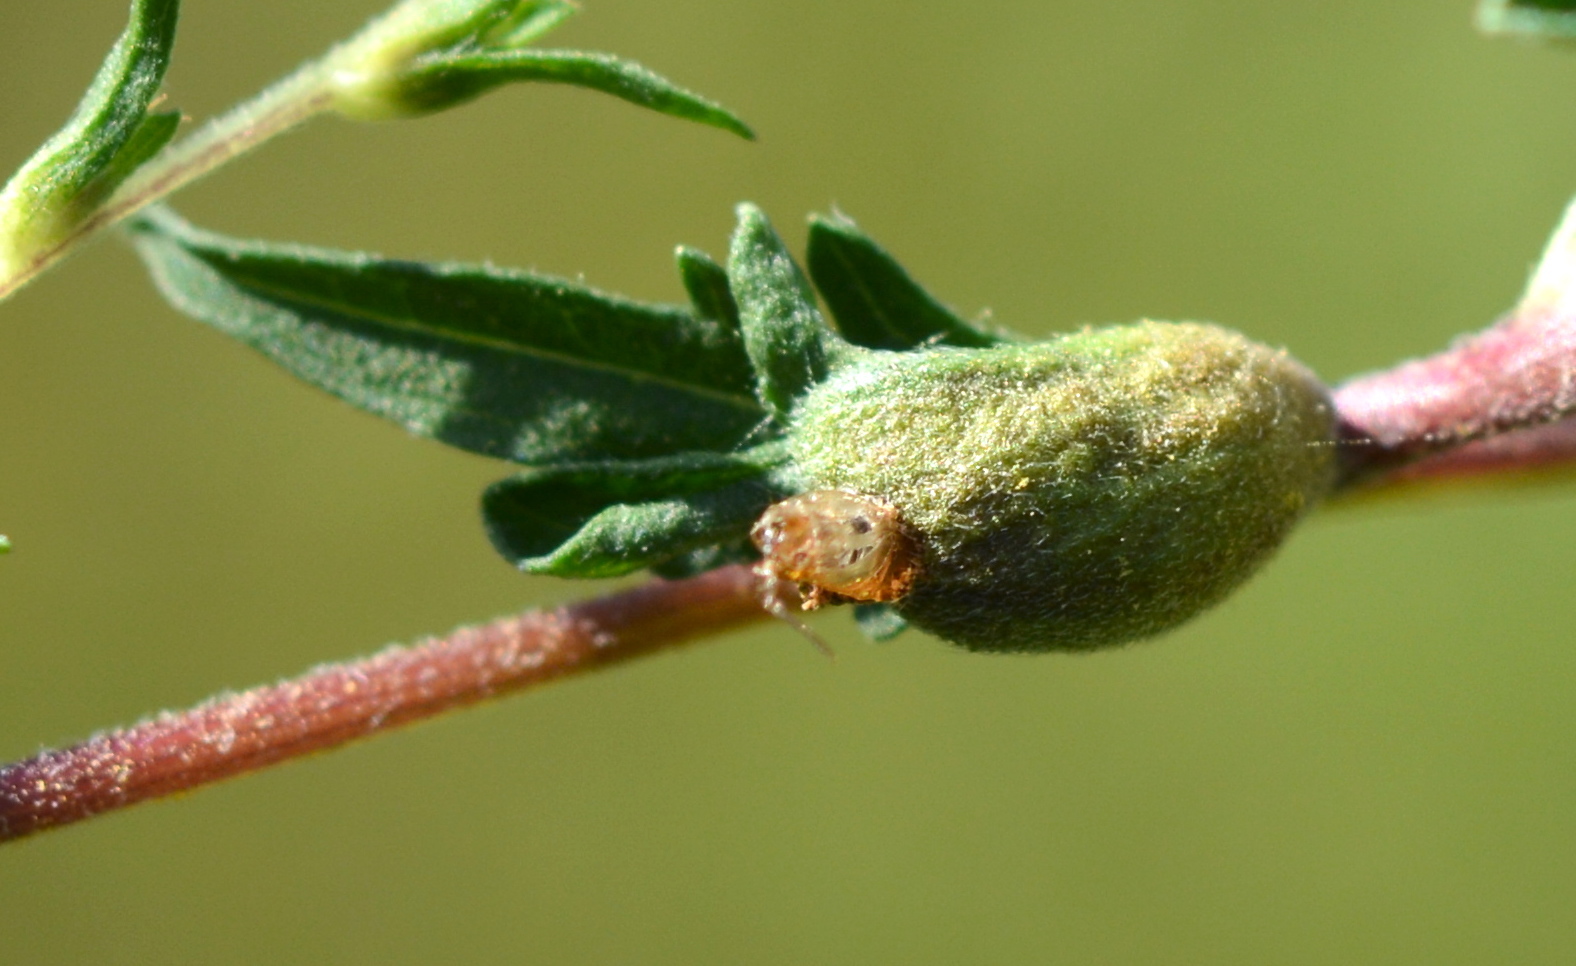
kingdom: Animalia
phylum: Arthropoda
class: Insecta
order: Diptera
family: Cecidomyiidae
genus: Asphondylia
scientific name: Asphondylia ambrosiae
